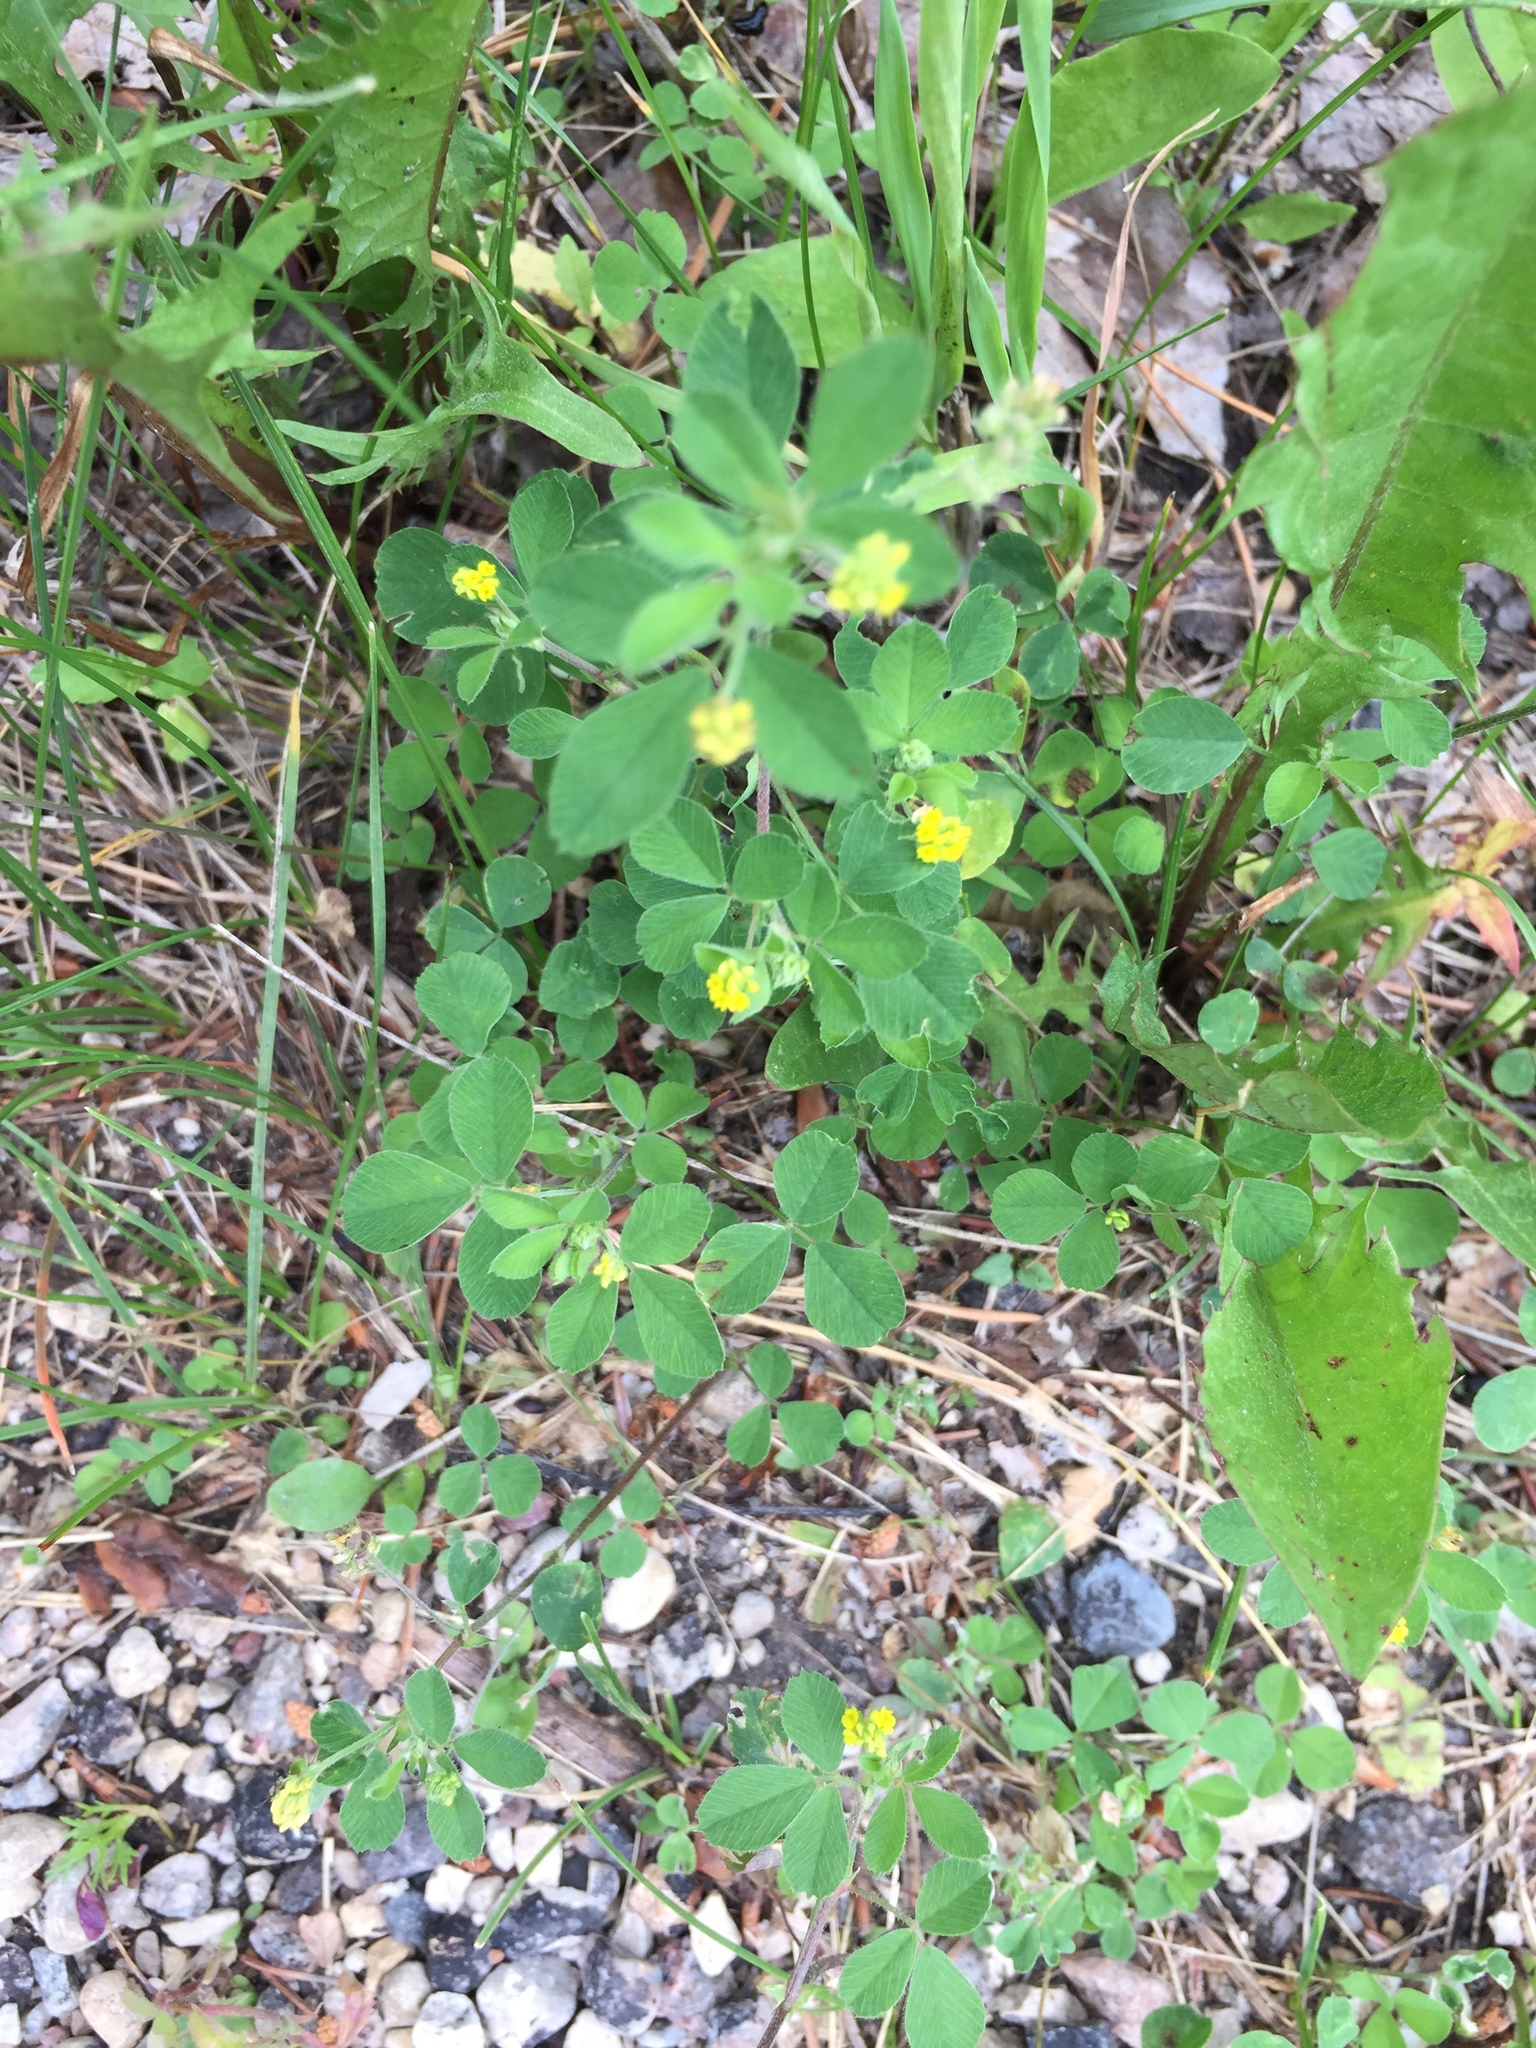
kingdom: Plantae
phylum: Tracheophyta
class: Magnoliopsida
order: Fabales
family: Fabaceae
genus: Medicago
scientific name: Medicago lupulina
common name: Black medick
